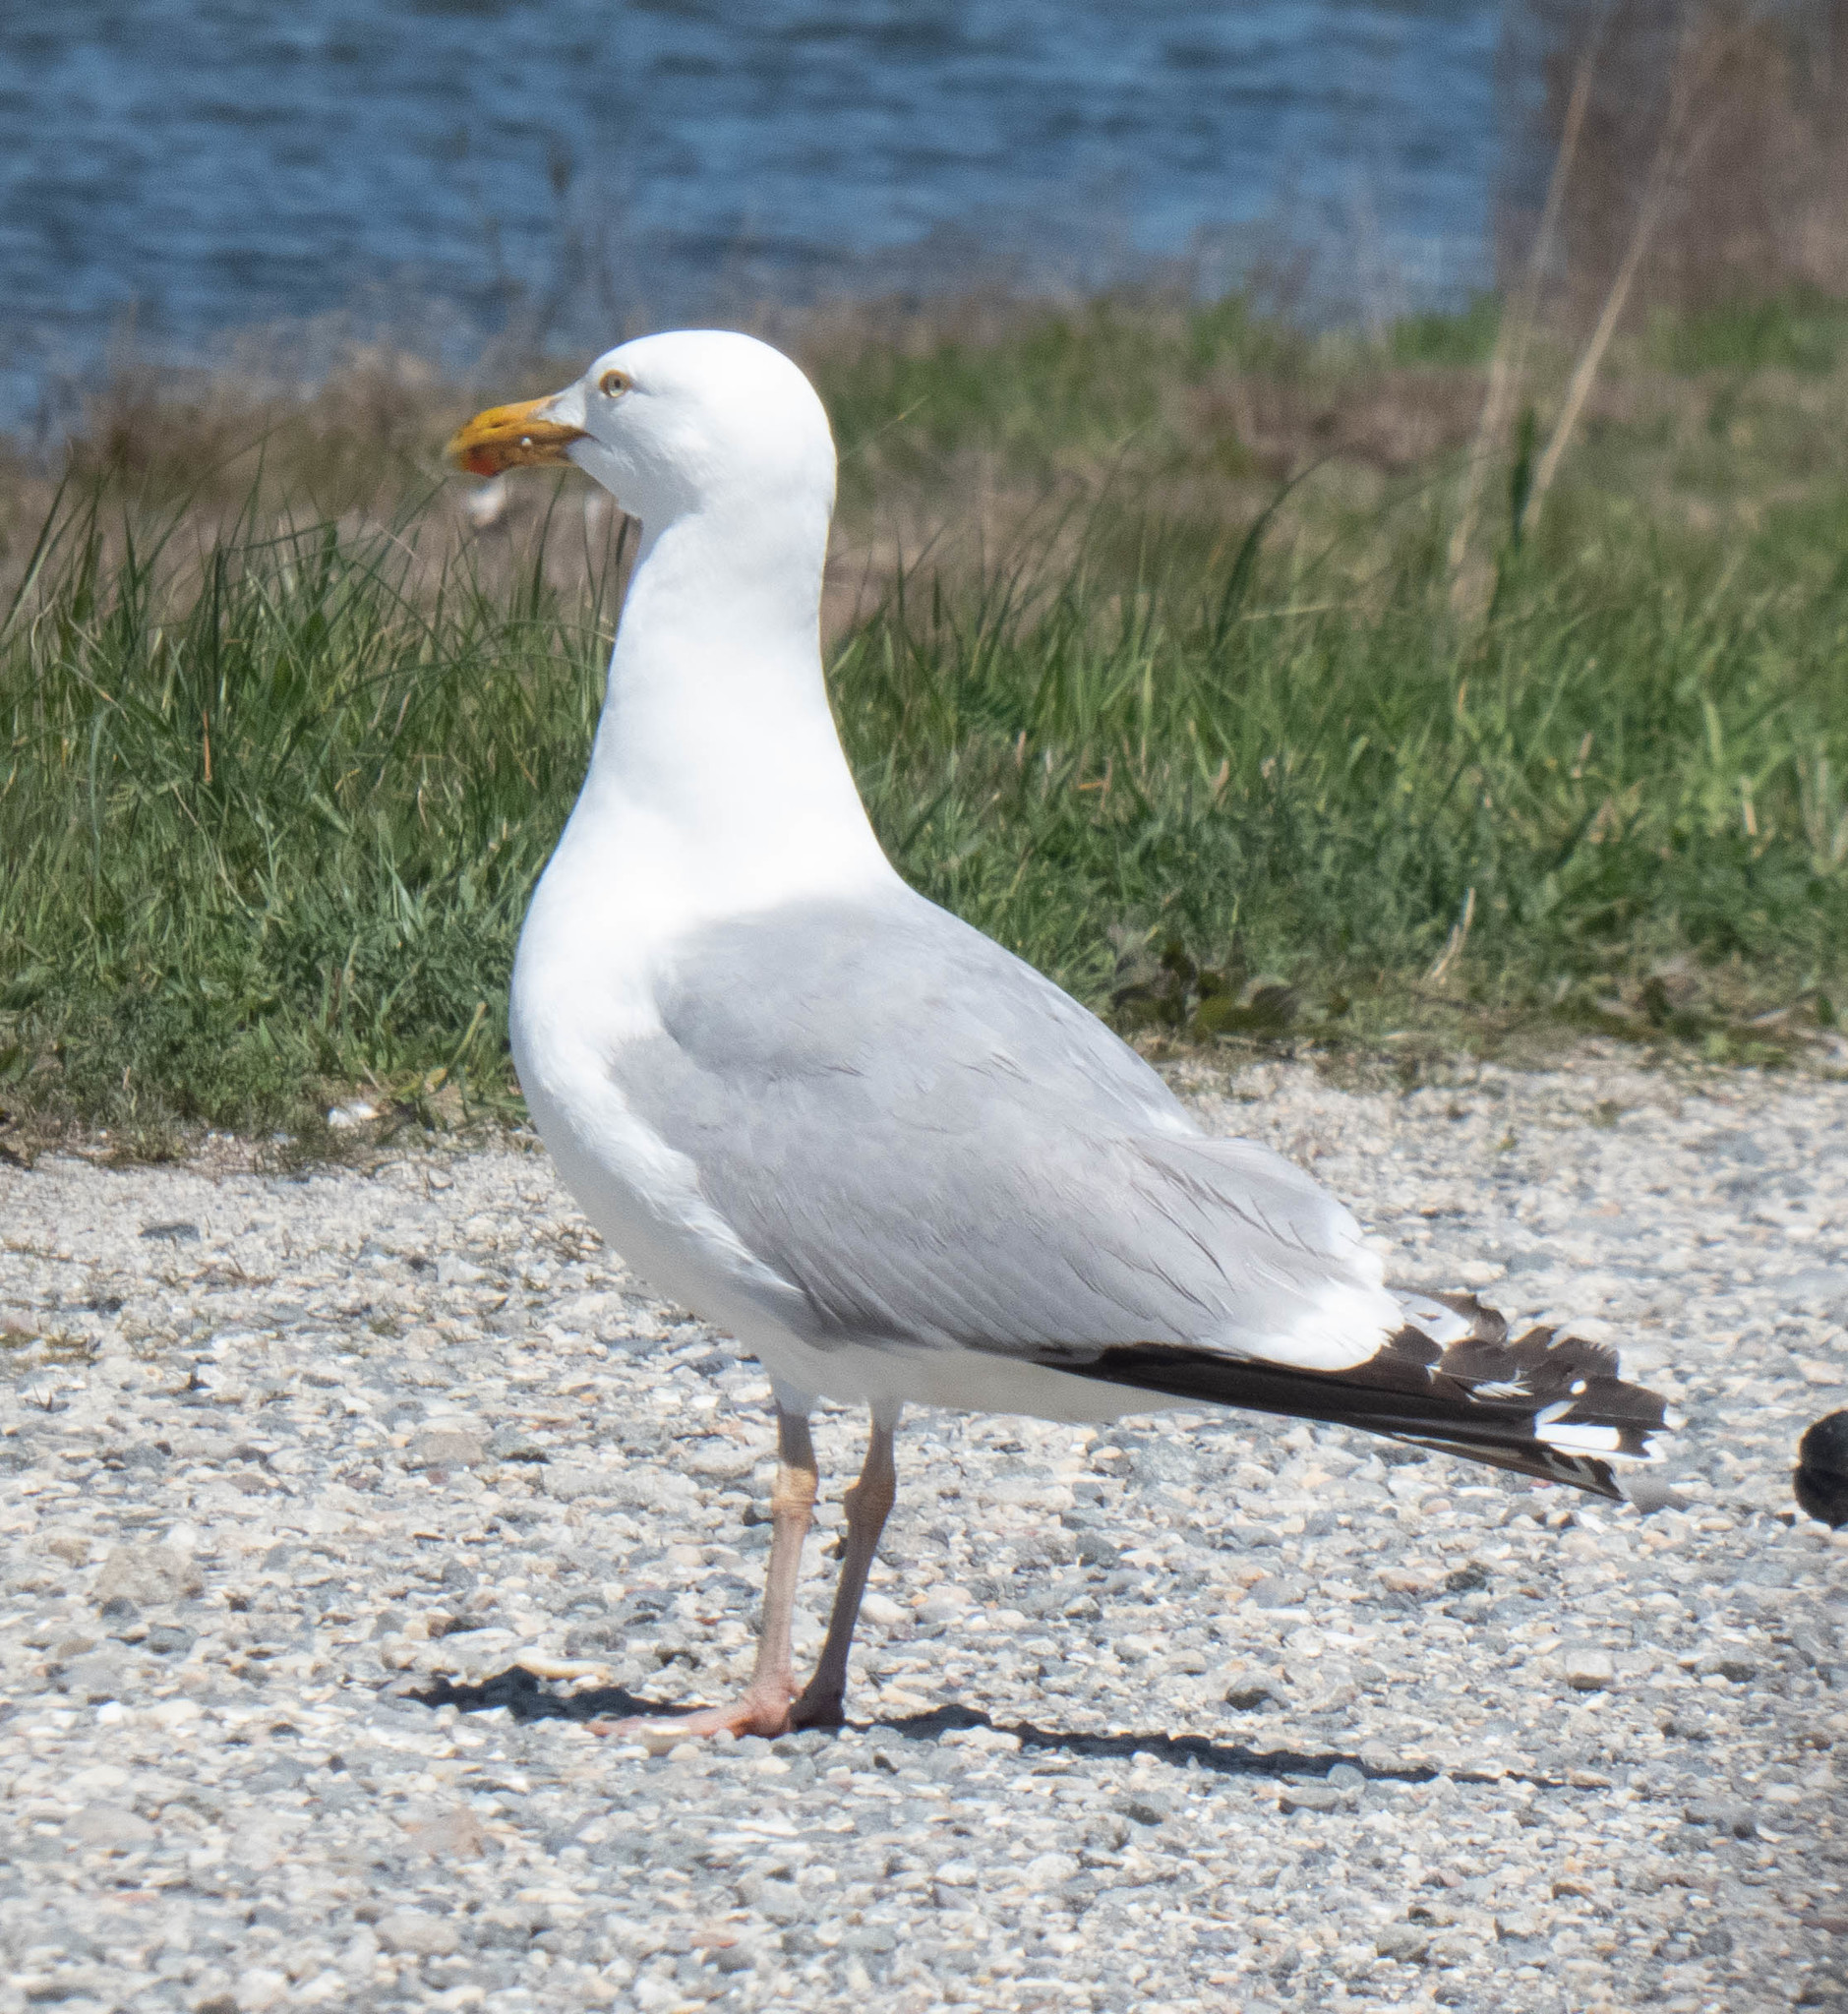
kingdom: Animalia
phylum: Chordata
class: Aves
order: Charadriiformes
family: Laridae
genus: Larus
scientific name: Larus argentatus
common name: Herring gull
